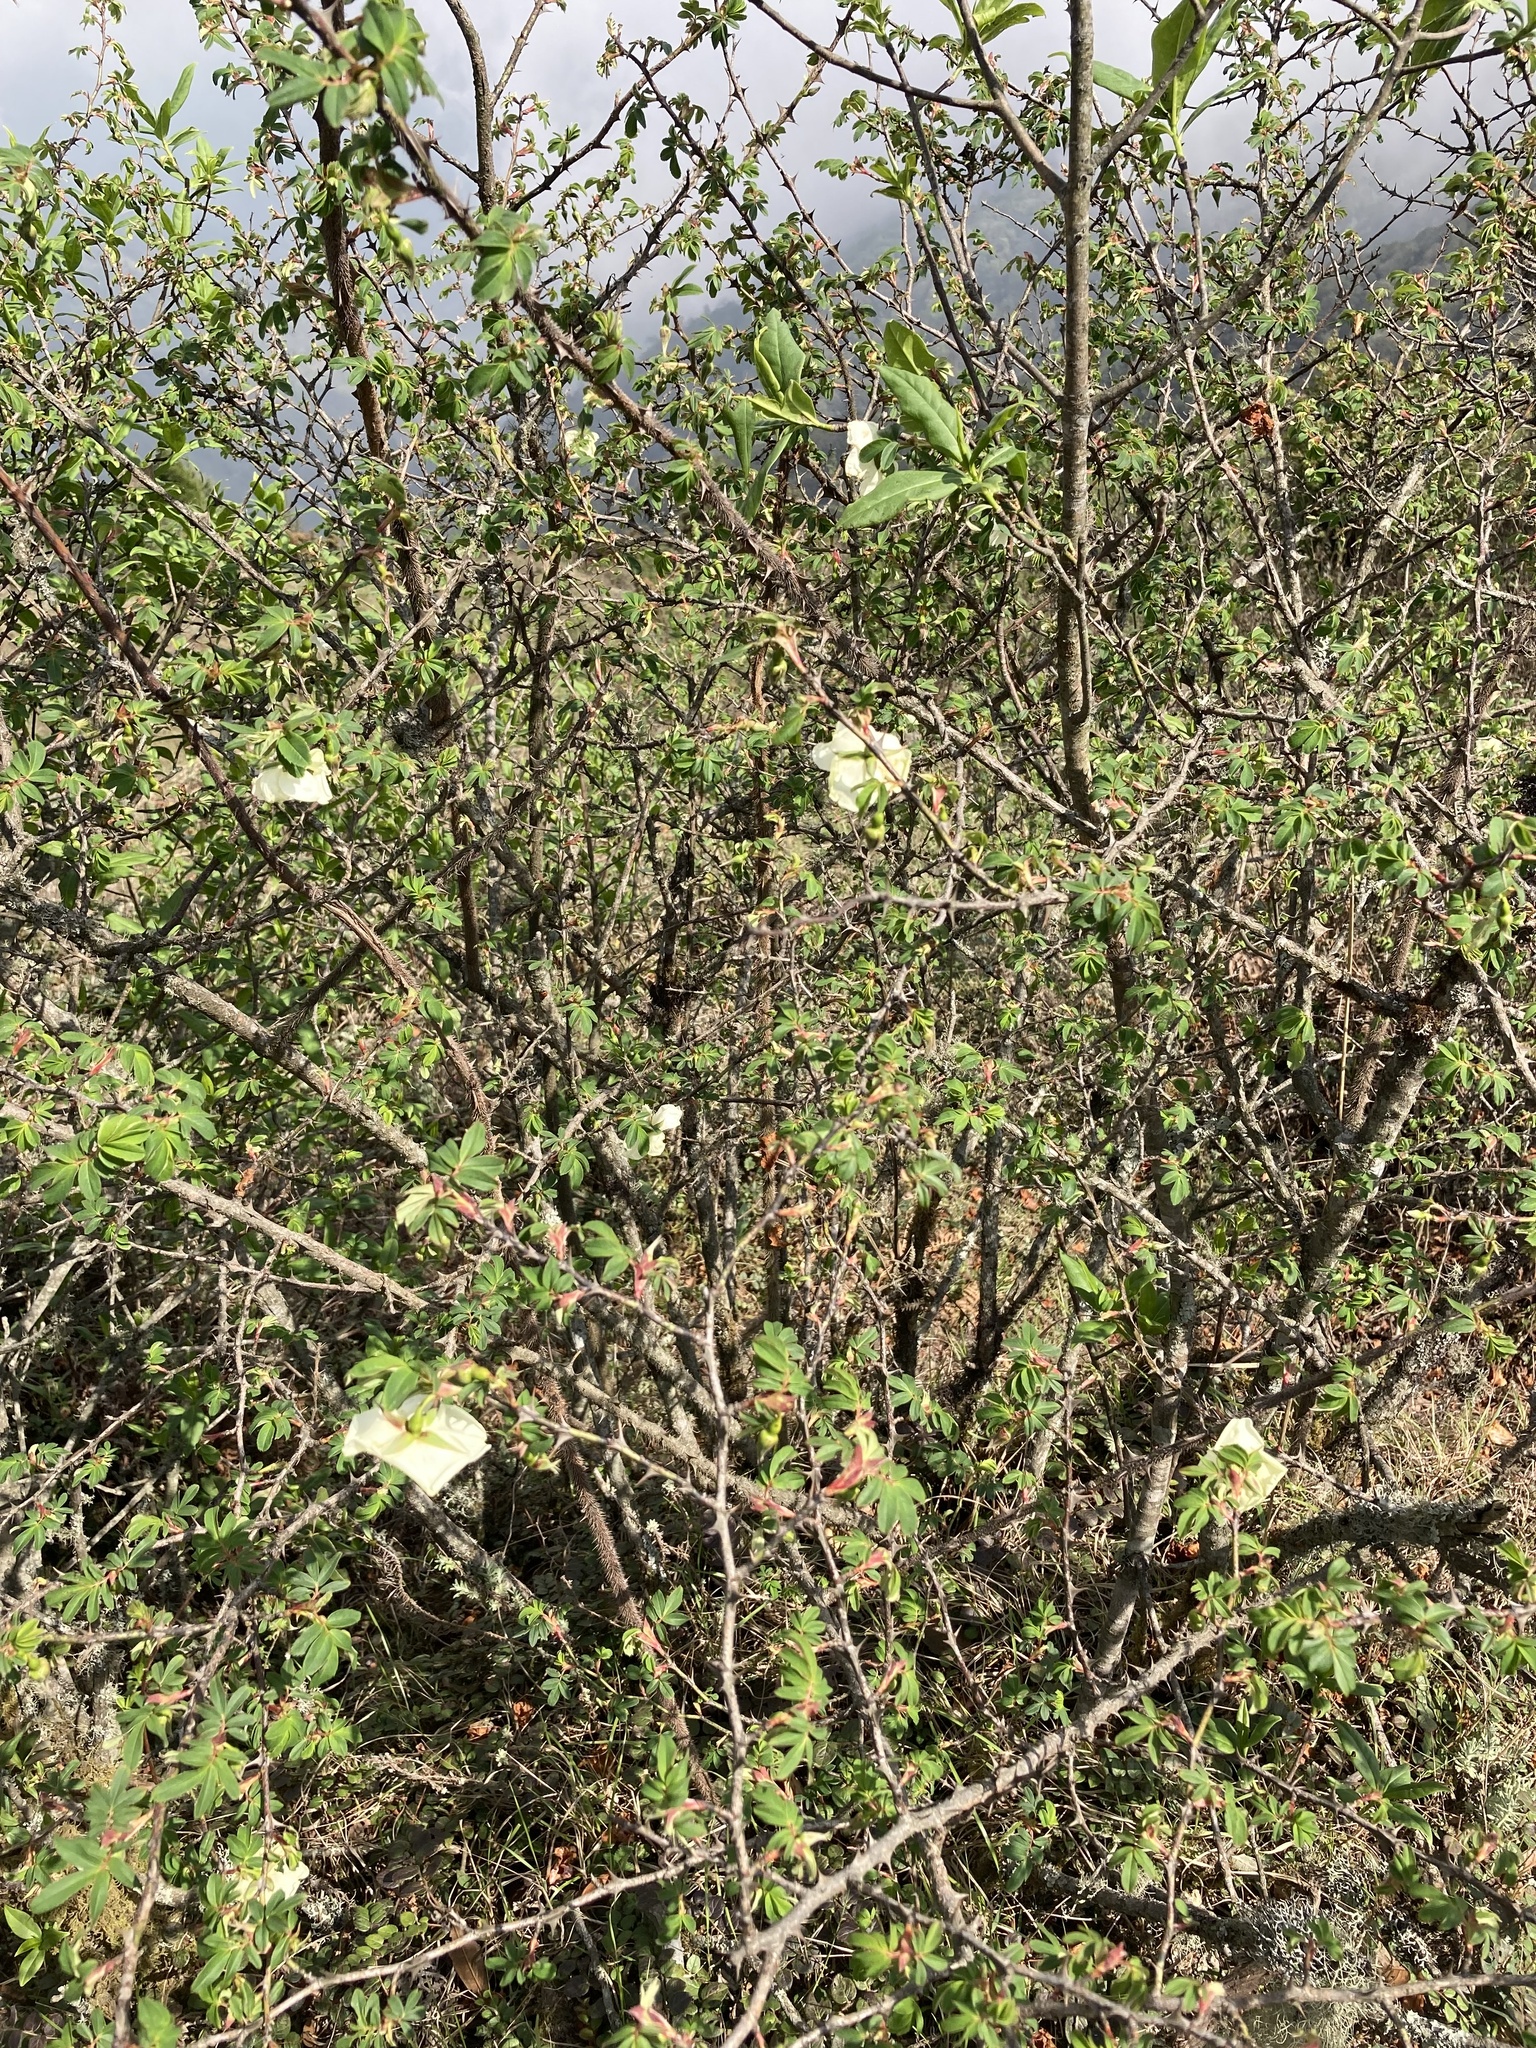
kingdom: Plantae
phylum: Tracheophyta
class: Magnoliopsida
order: Rosales
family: Rosaceae
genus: Rosa
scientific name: Rosa sericea
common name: Silky rose
